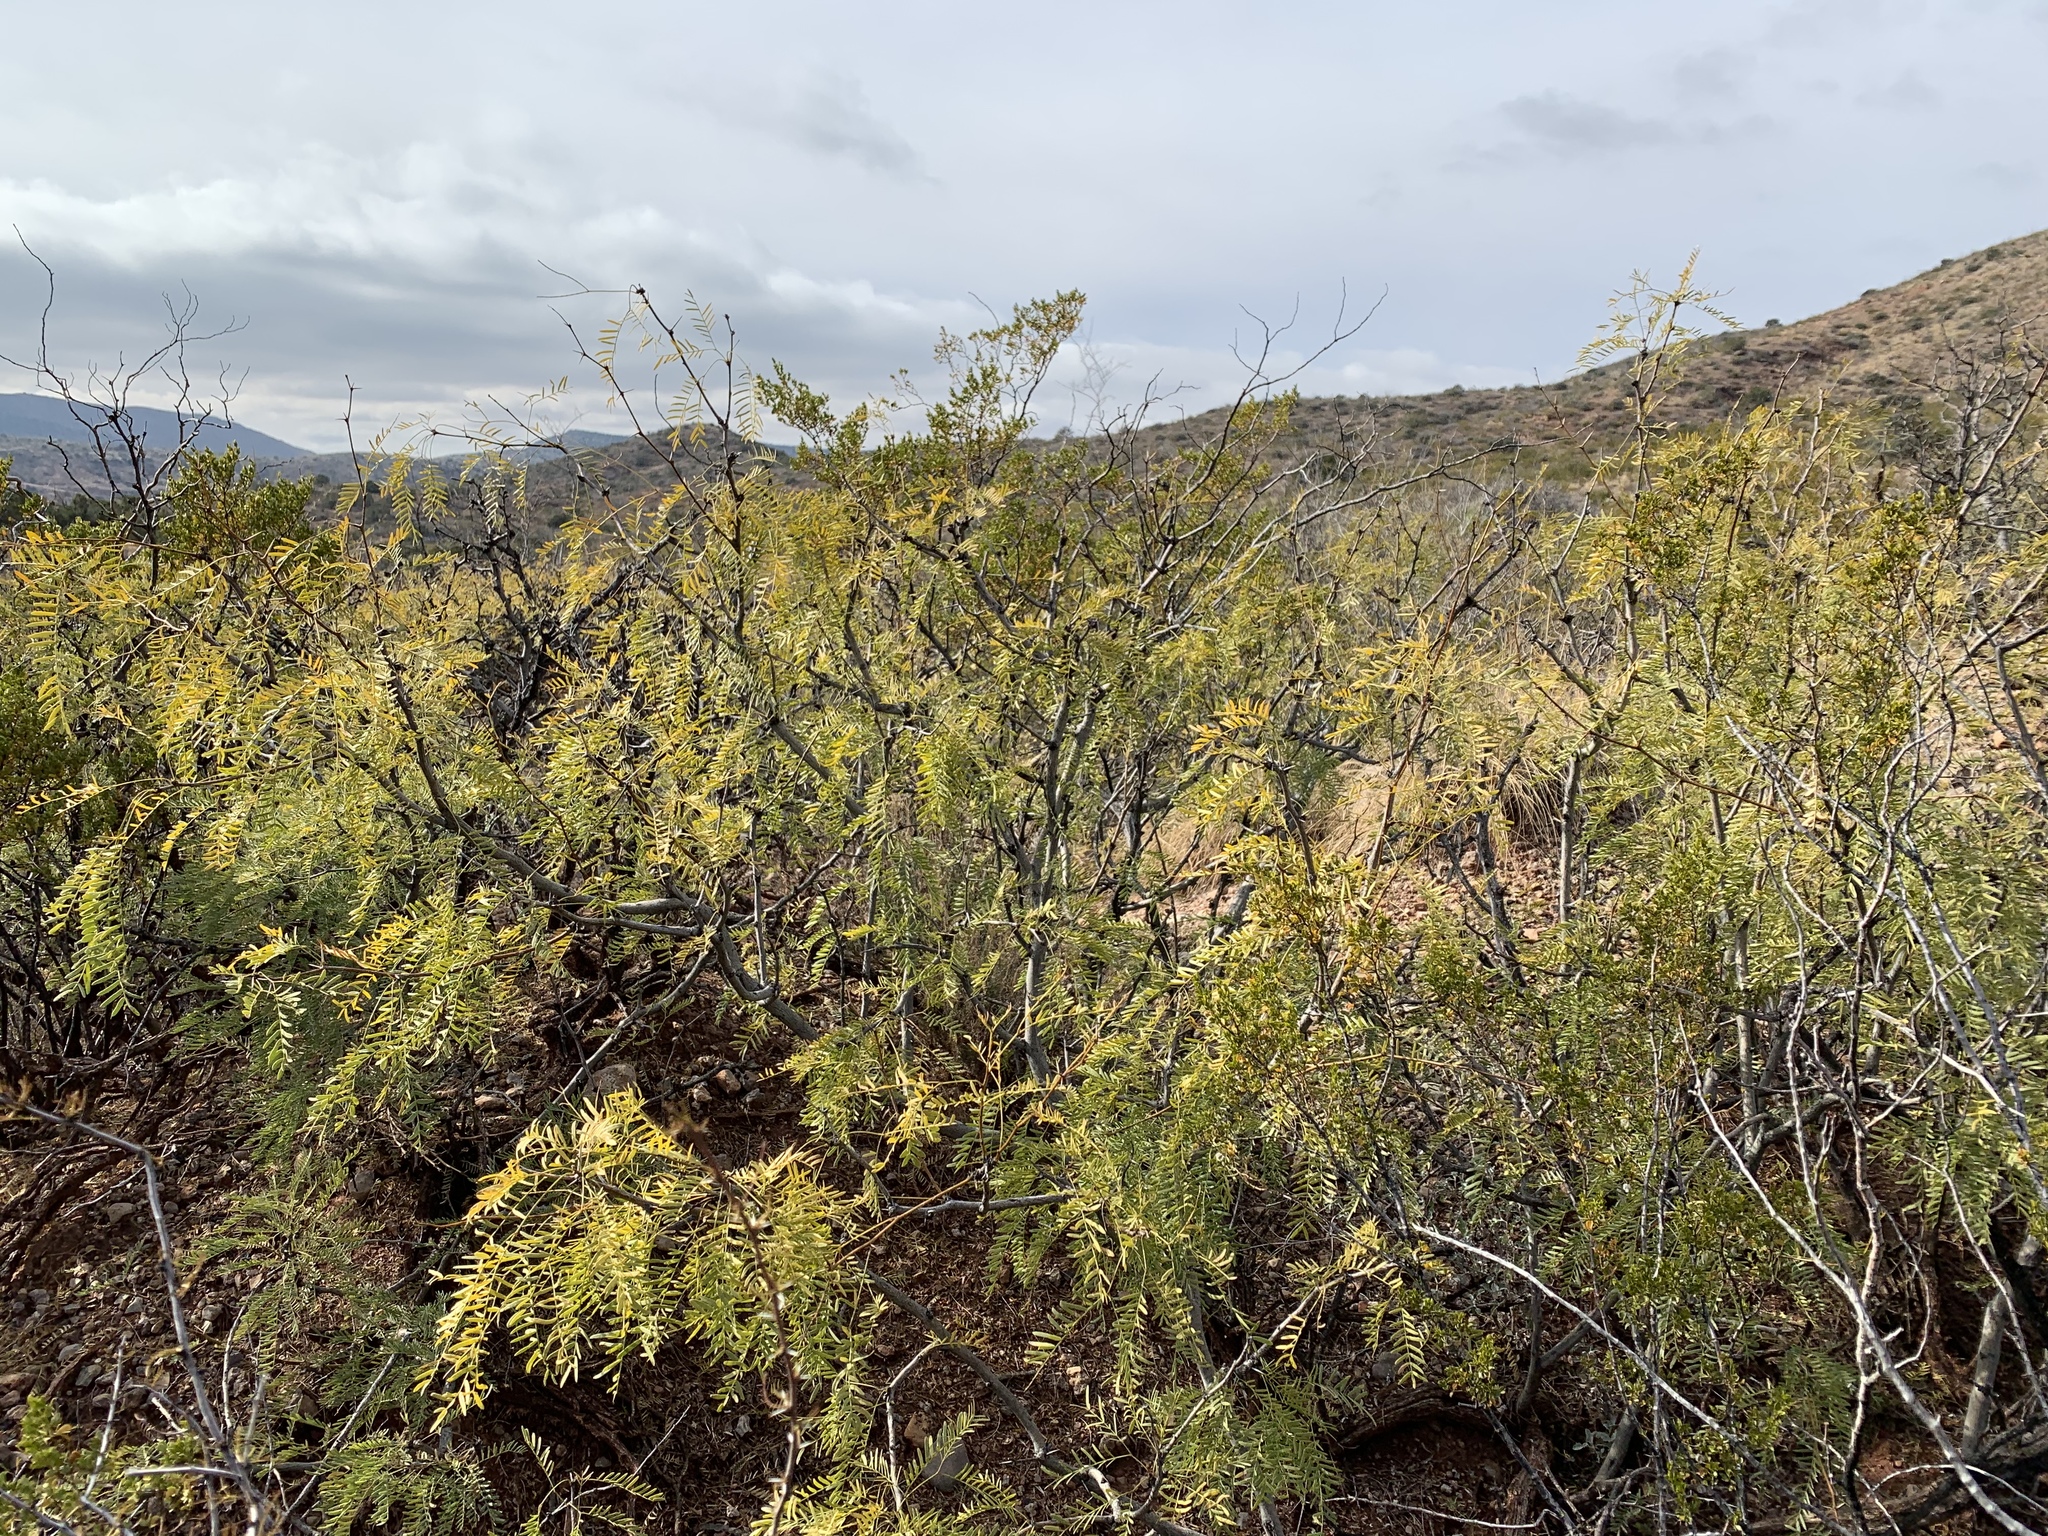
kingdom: Plantae
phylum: Tracheophyta
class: Magnoliopsida
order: Fabales
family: Fabaceae
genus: Prosopis
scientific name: Prosopis glandulosa
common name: Honey mesquite
